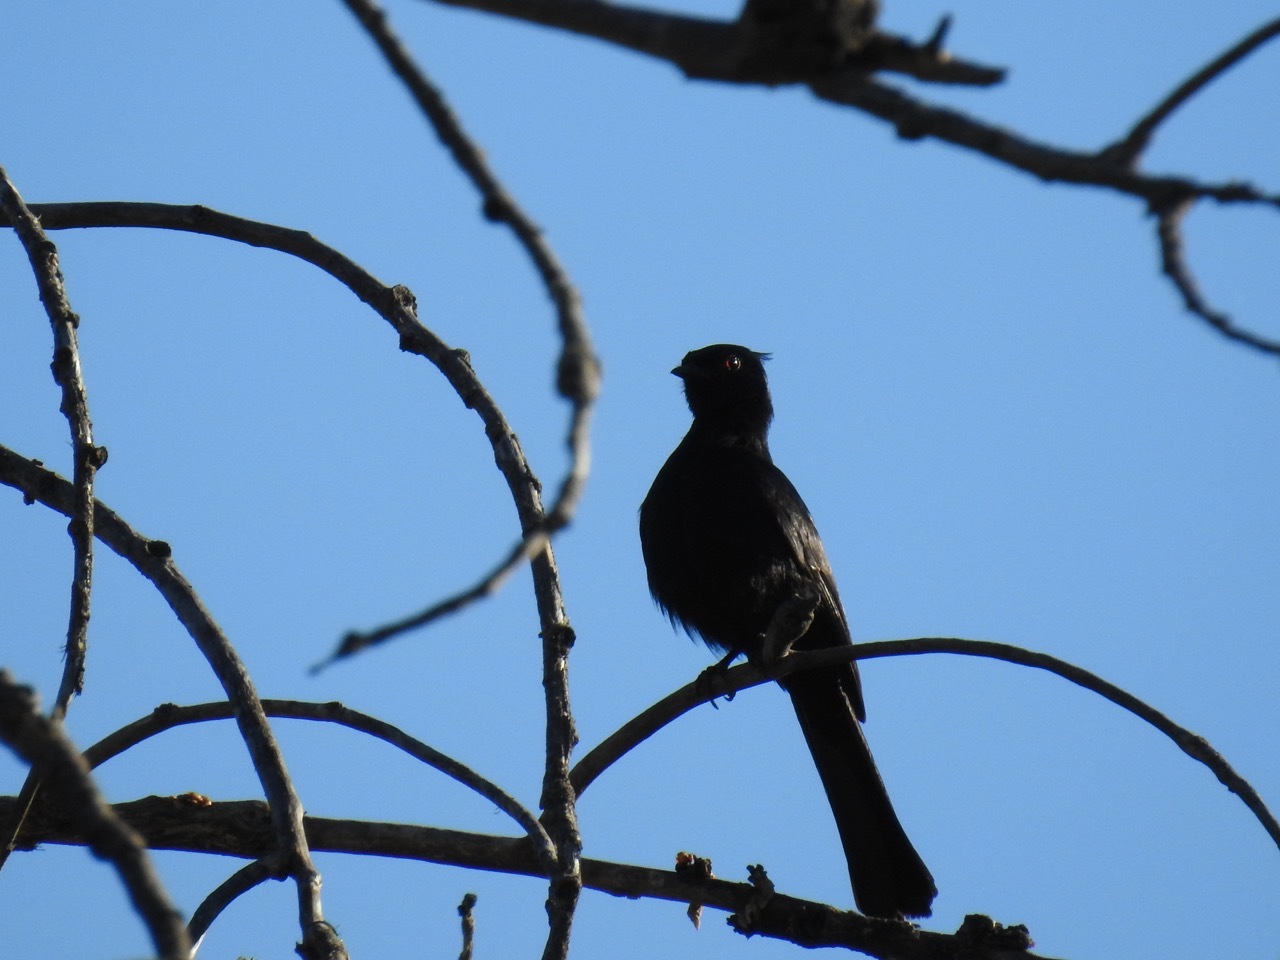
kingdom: Animalia
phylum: Chordata
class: Aves
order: Passeriformes
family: Ptilogonatidae
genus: Phainopepla
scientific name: Phainopepla nitens
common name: Phainopepla
